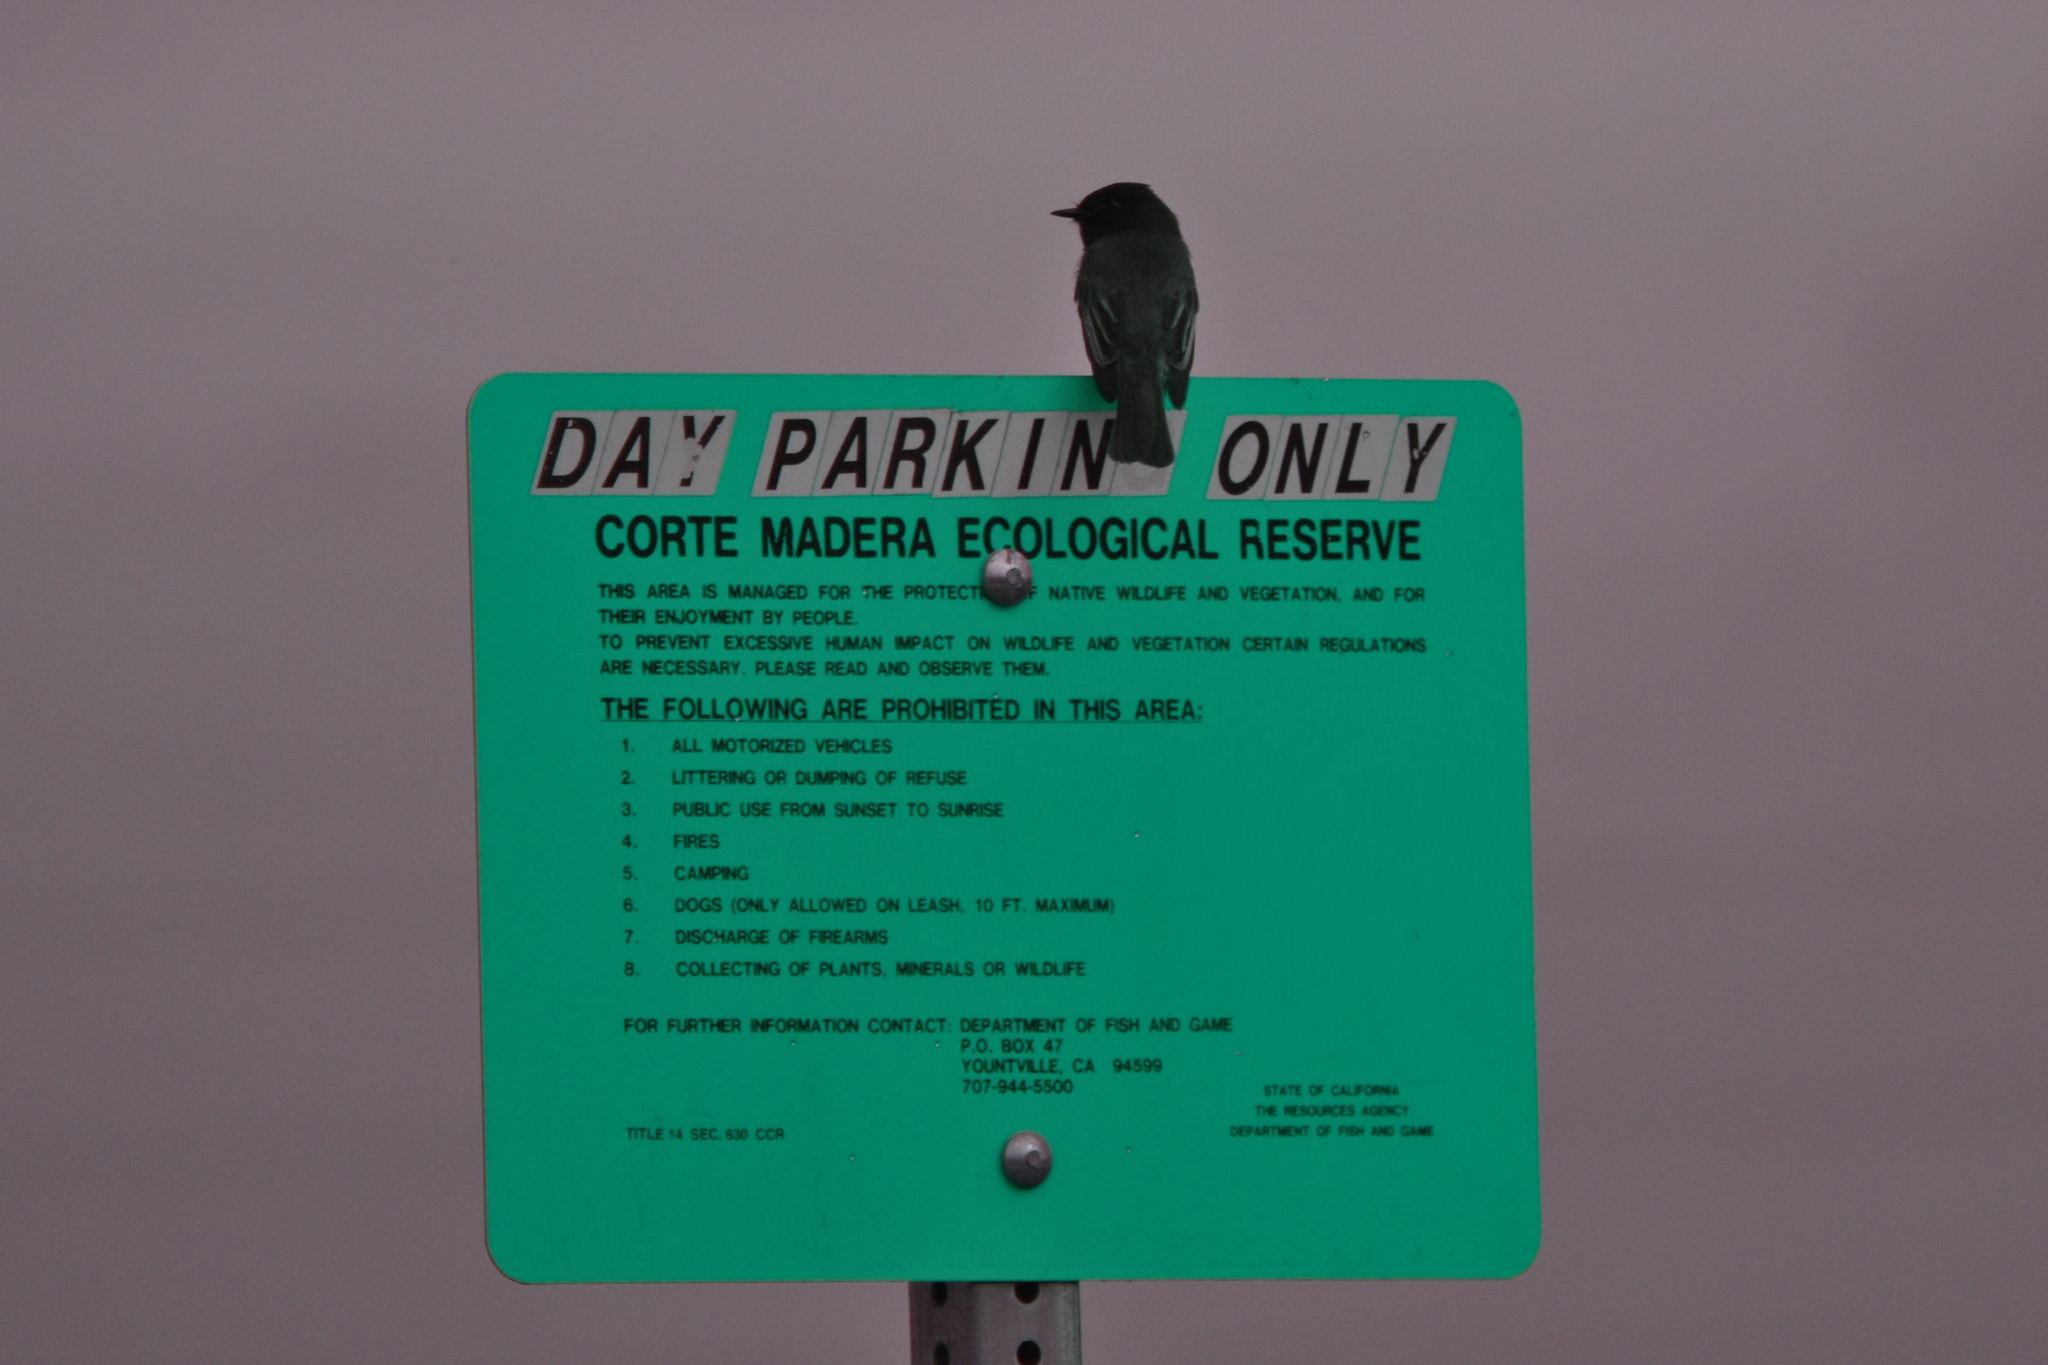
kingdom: Animalia
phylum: Chordata
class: Aves
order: Passeriformes
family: Tyrannidae
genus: Sayornis
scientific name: Sayornis nigricans
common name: Black phoebe
